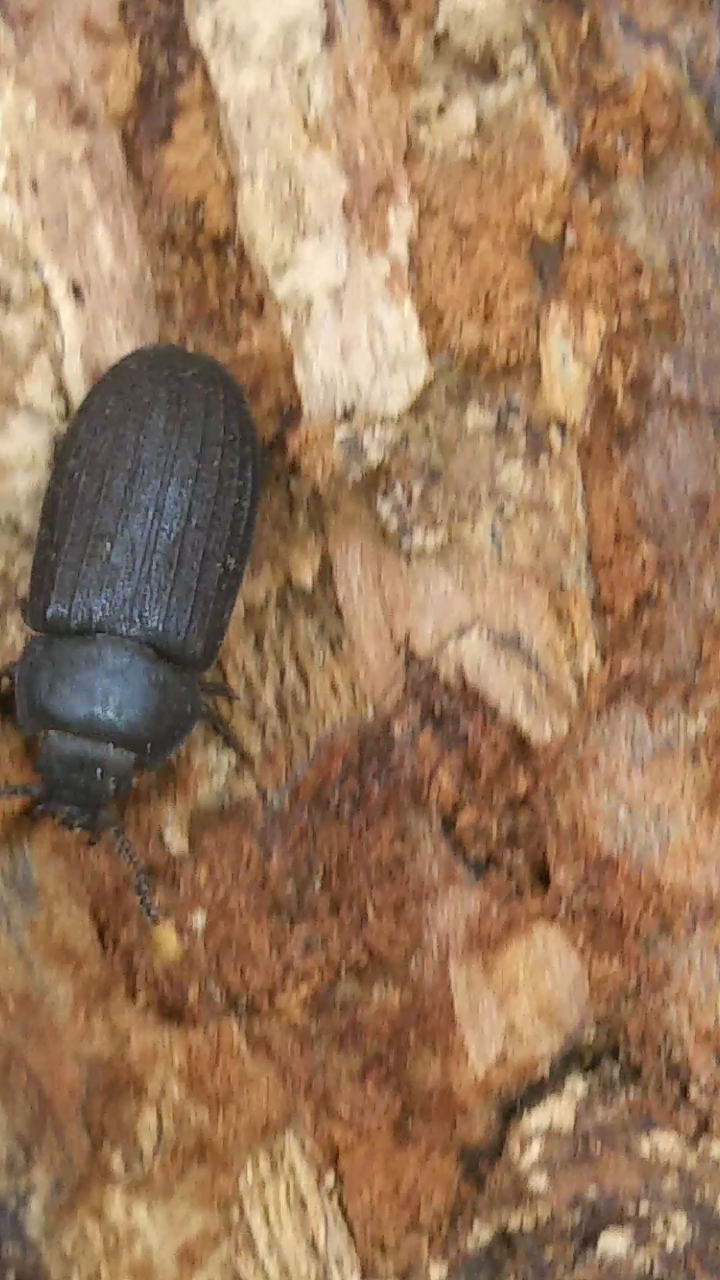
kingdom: Animalia
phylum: Arthropoda
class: Insecta
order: Coleoptera
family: Trogossitidae
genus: Grynocharis
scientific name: Grynocharis quadrilineata
